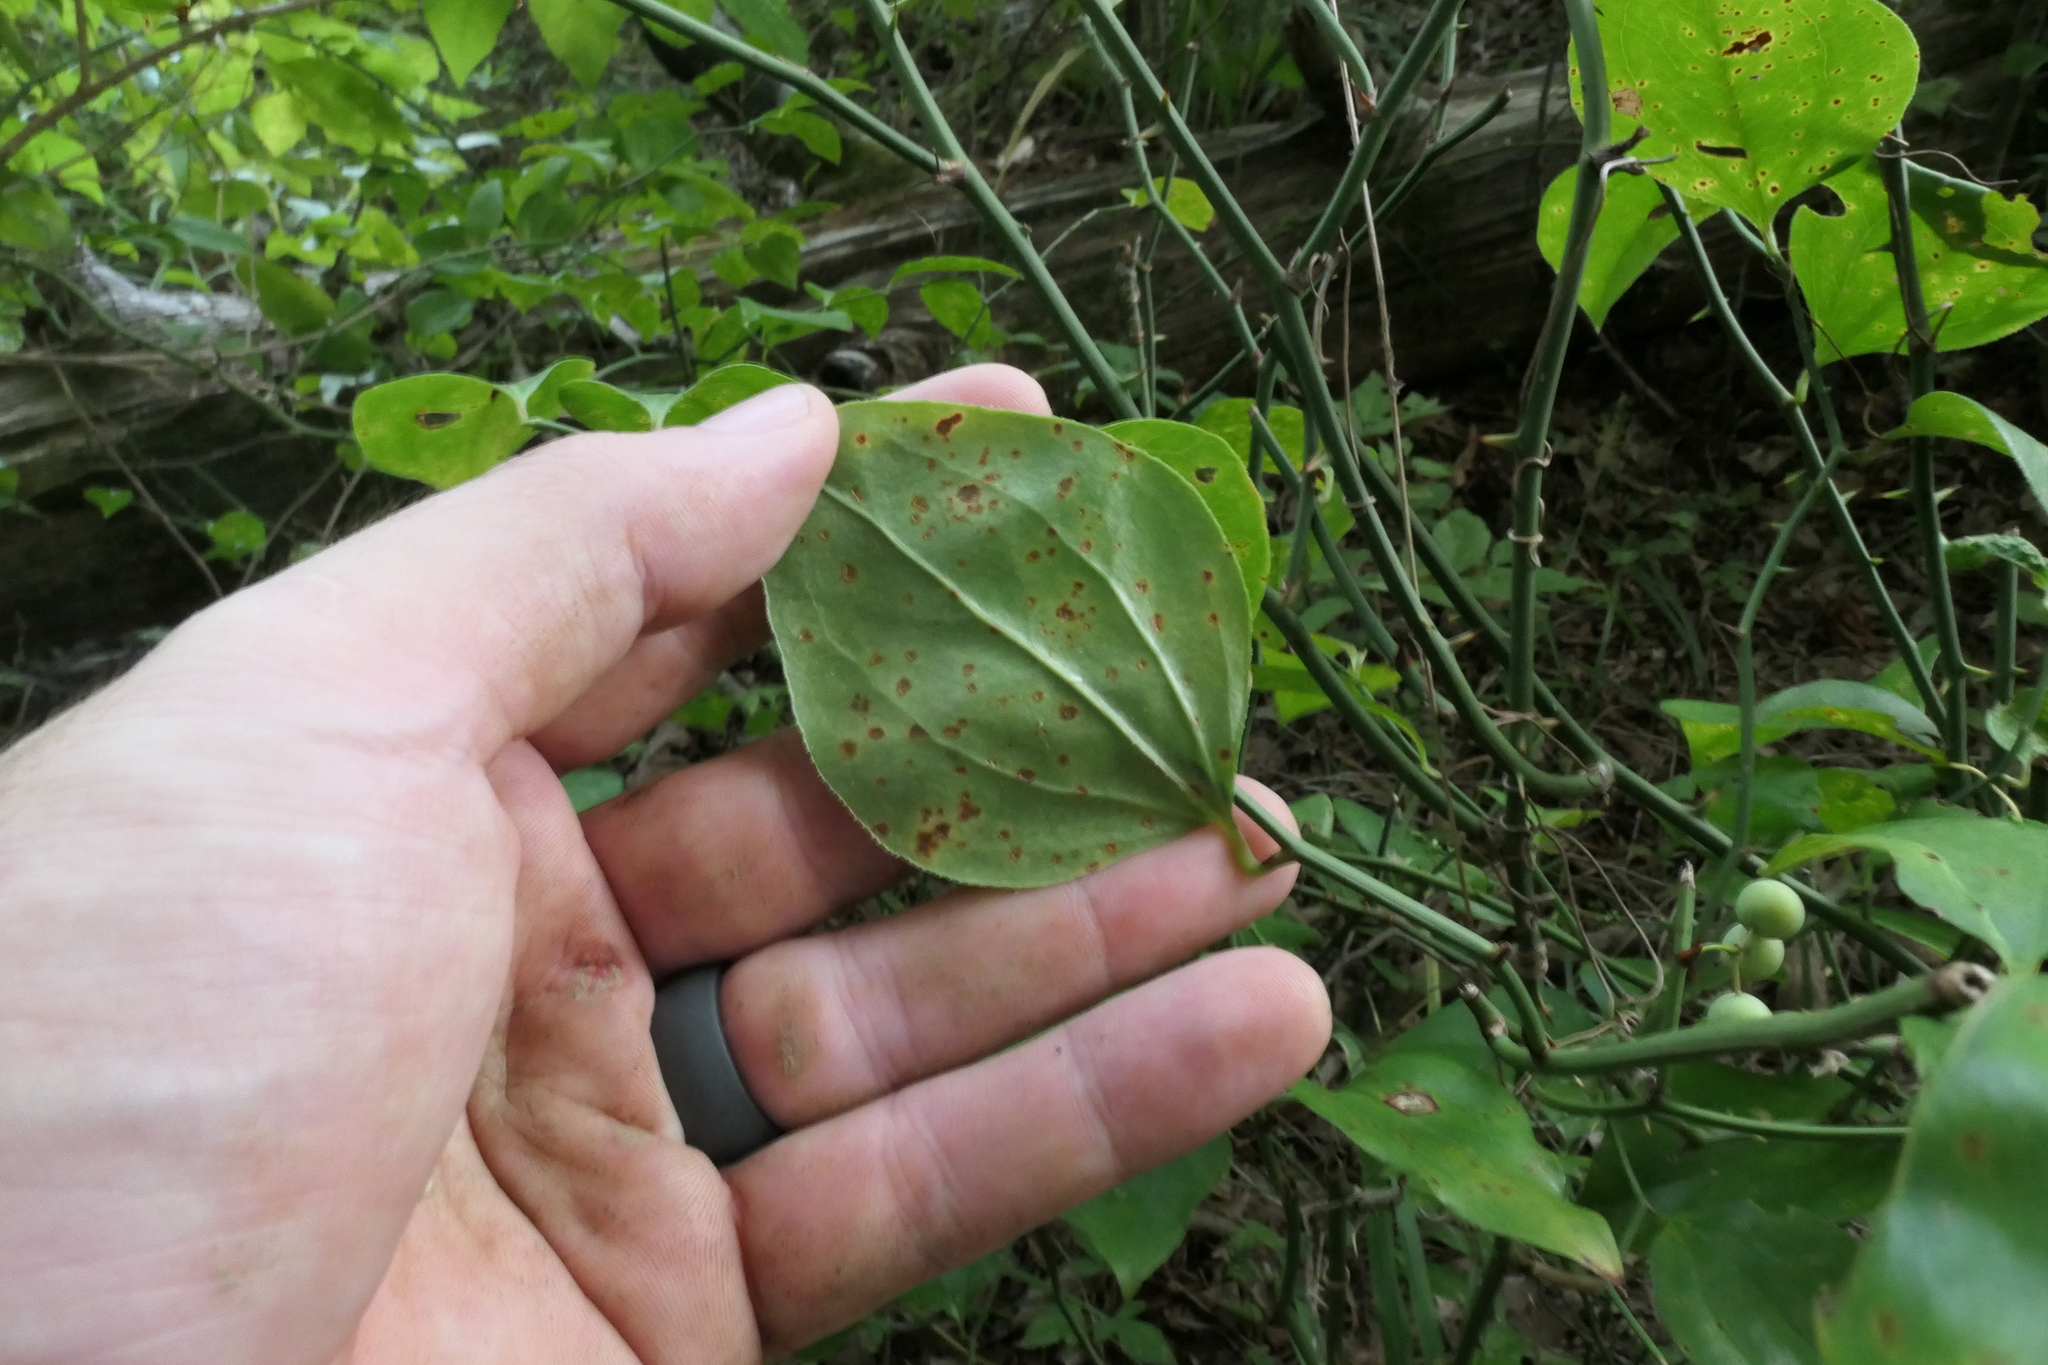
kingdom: Plantae
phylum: Tracheophyta
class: Liliopsida
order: Liliales
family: Smilacaceae
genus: Smilax
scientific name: Smilax rotundifolia
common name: Bullbriar
